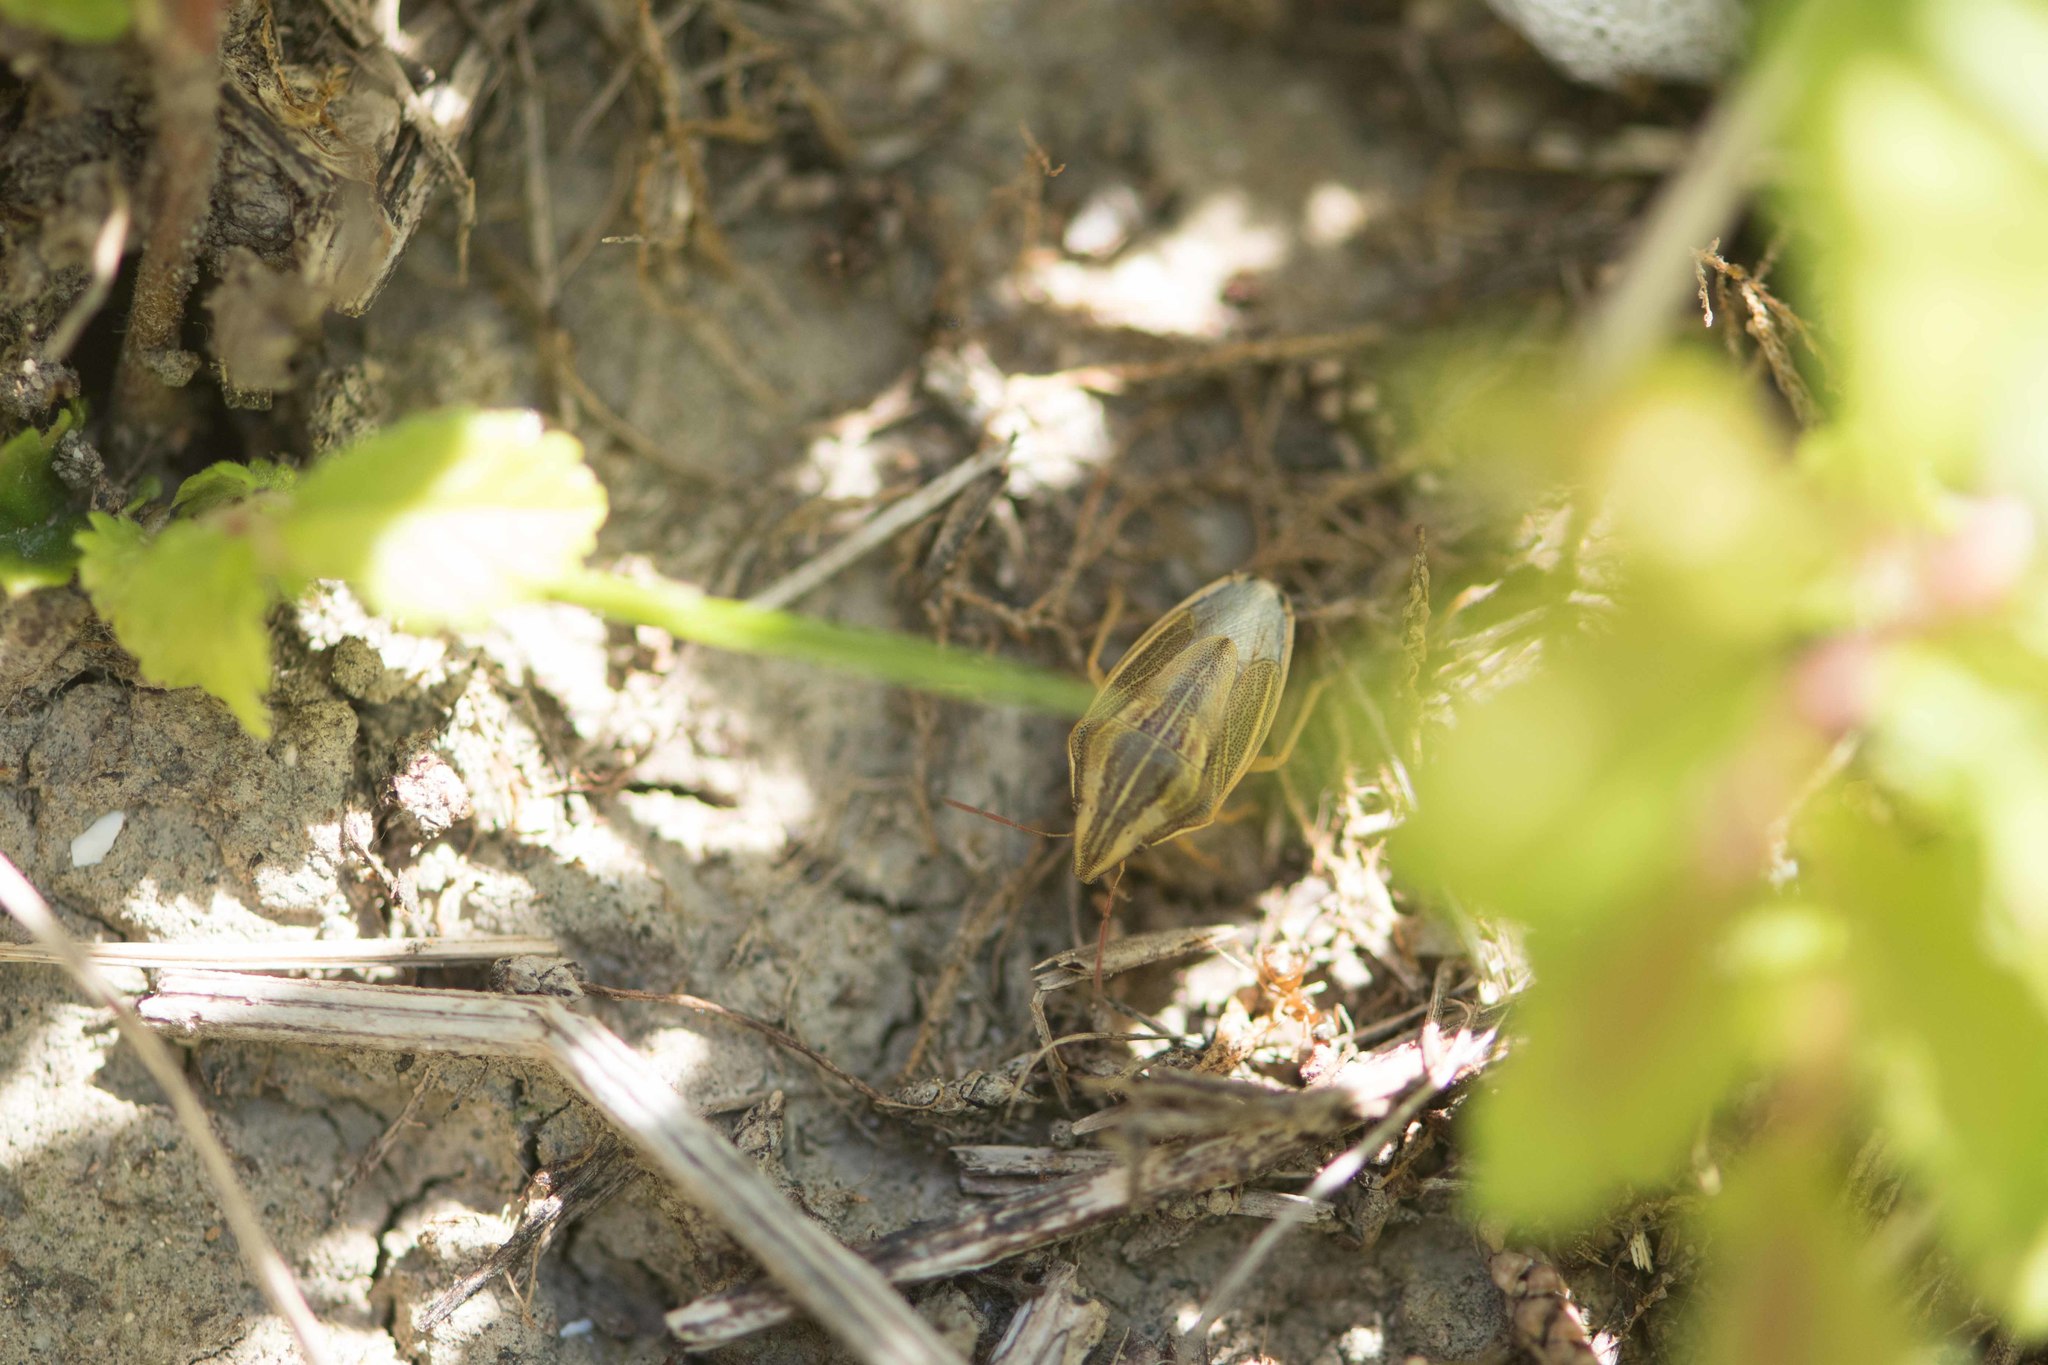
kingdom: Animalia
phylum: Arthropoda
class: Insecta
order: Hemiptera
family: Pentatomidae
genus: Aelia
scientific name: Aelia acuminata
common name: Bishop's mitre
